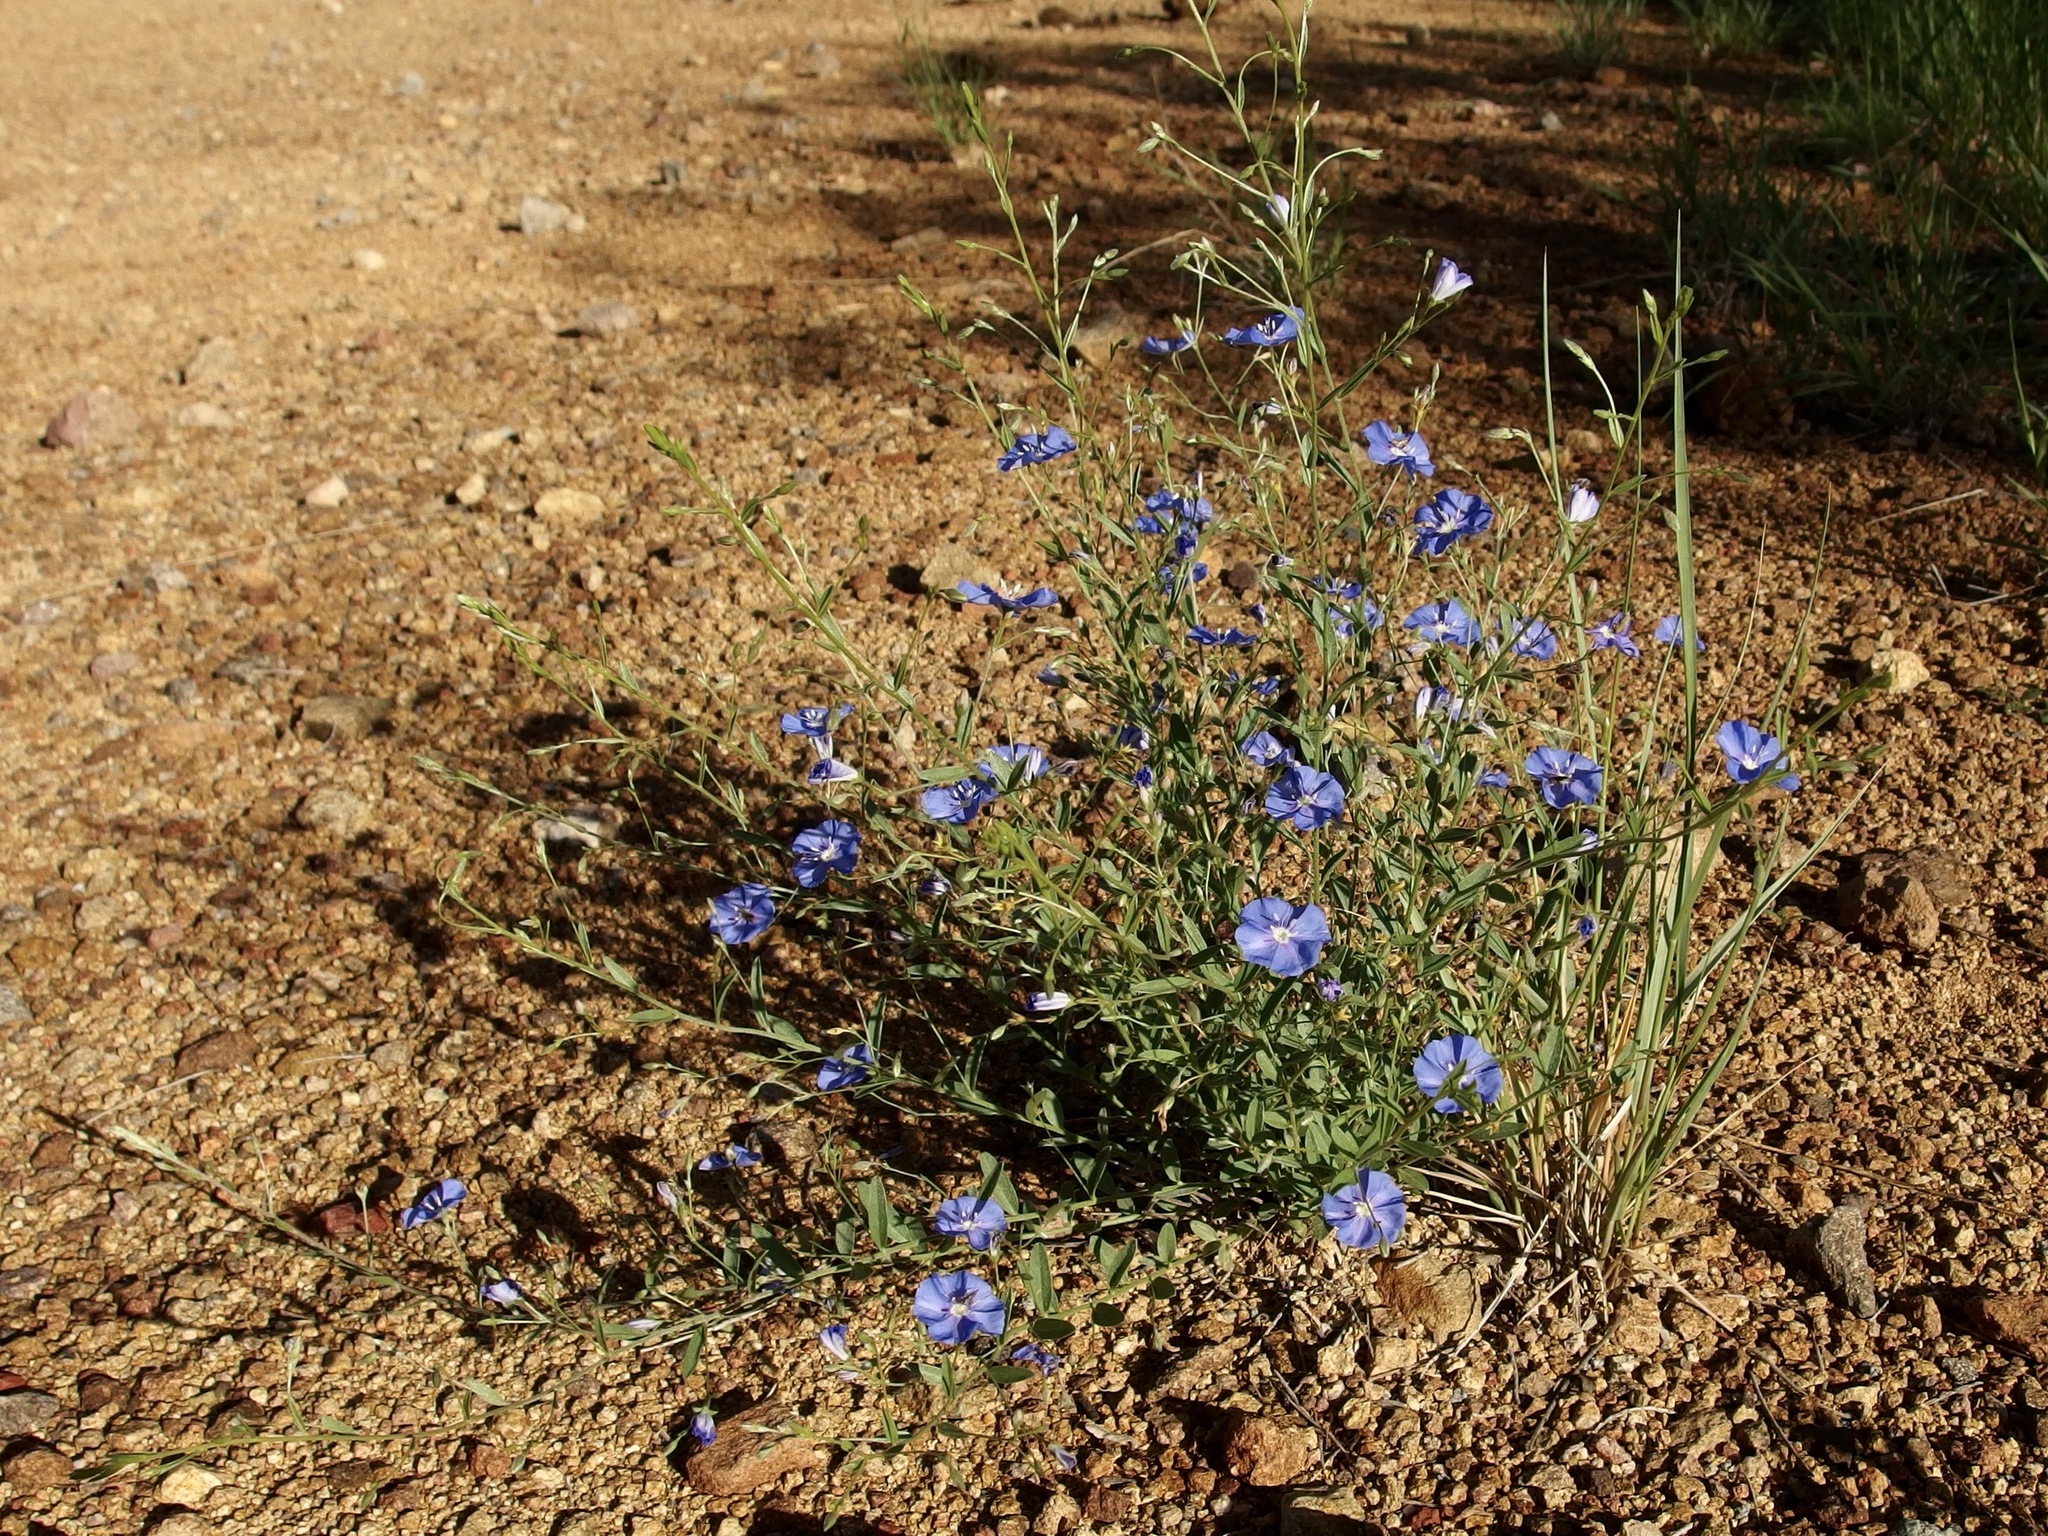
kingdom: Plantae
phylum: Tracheophyta
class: Magnoliopsida
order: Solanales
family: Convolvulaceae
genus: Evolvulus
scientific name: Evolvulus arizonicus
